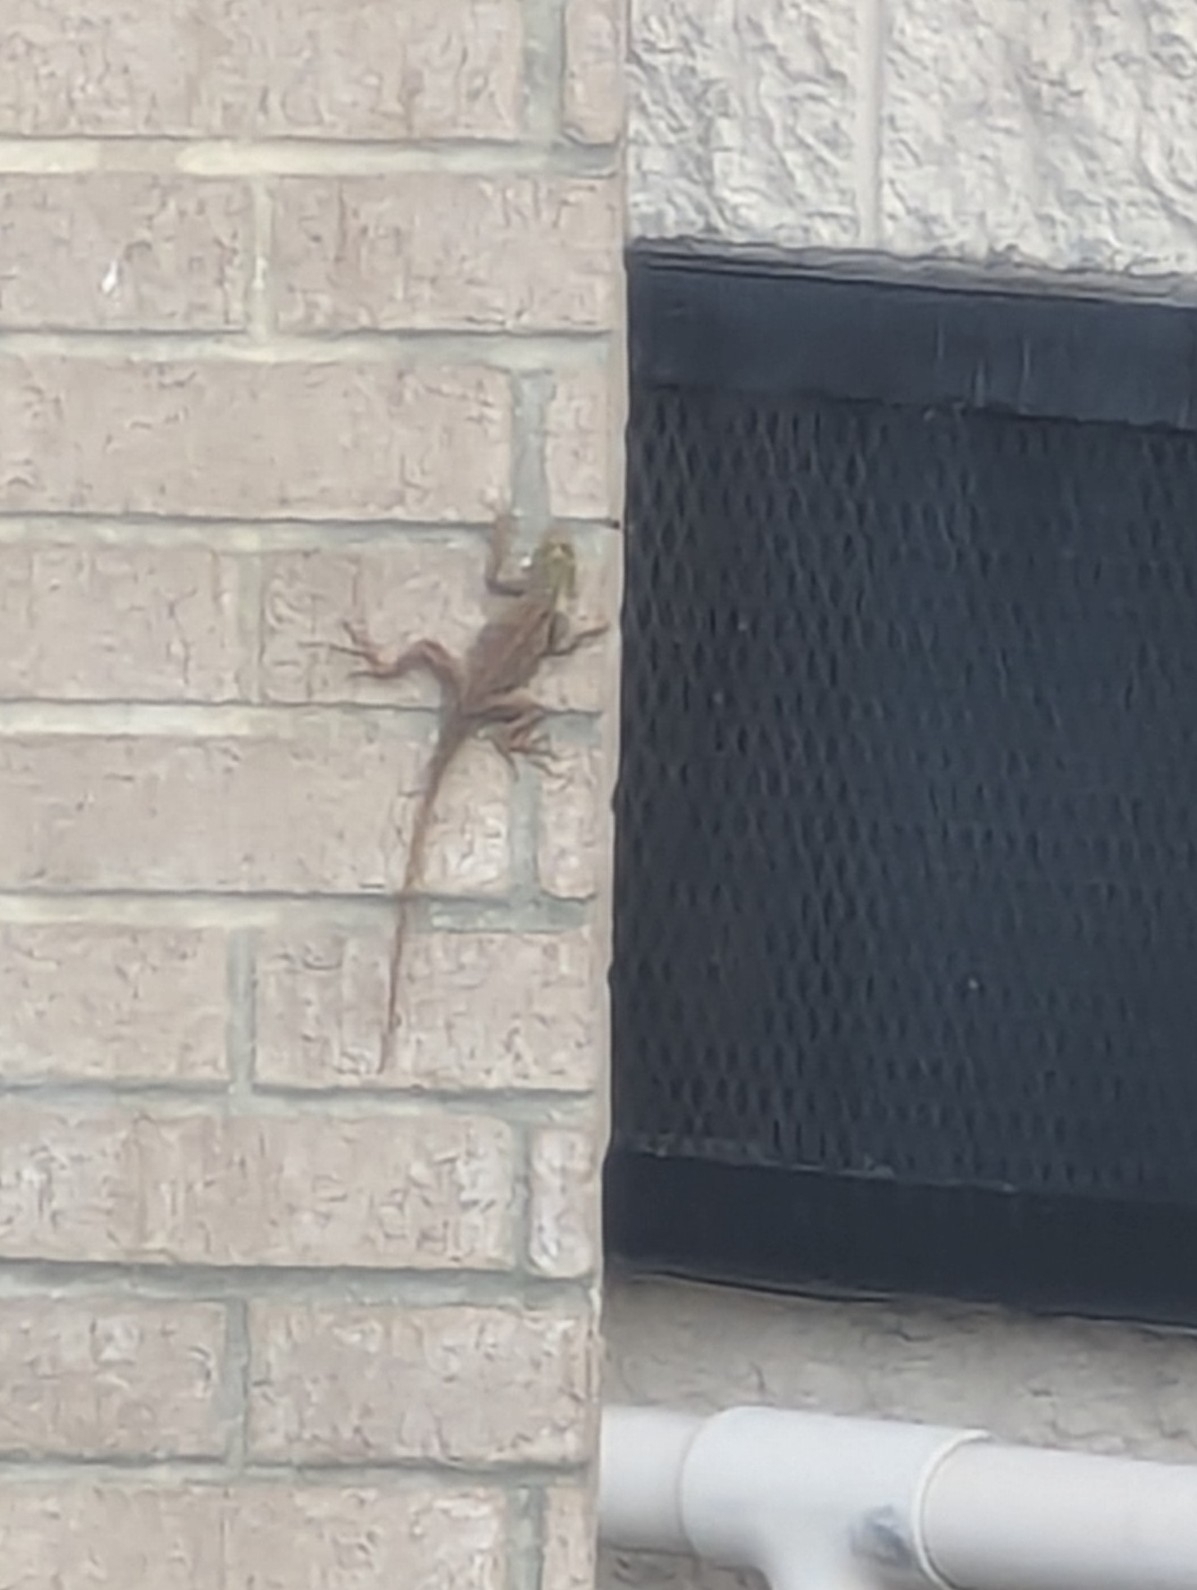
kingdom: Animalia
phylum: Chordata
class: Squamata
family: Agamidae
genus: Agama
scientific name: Agama picticauda
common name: Red-headed agama
